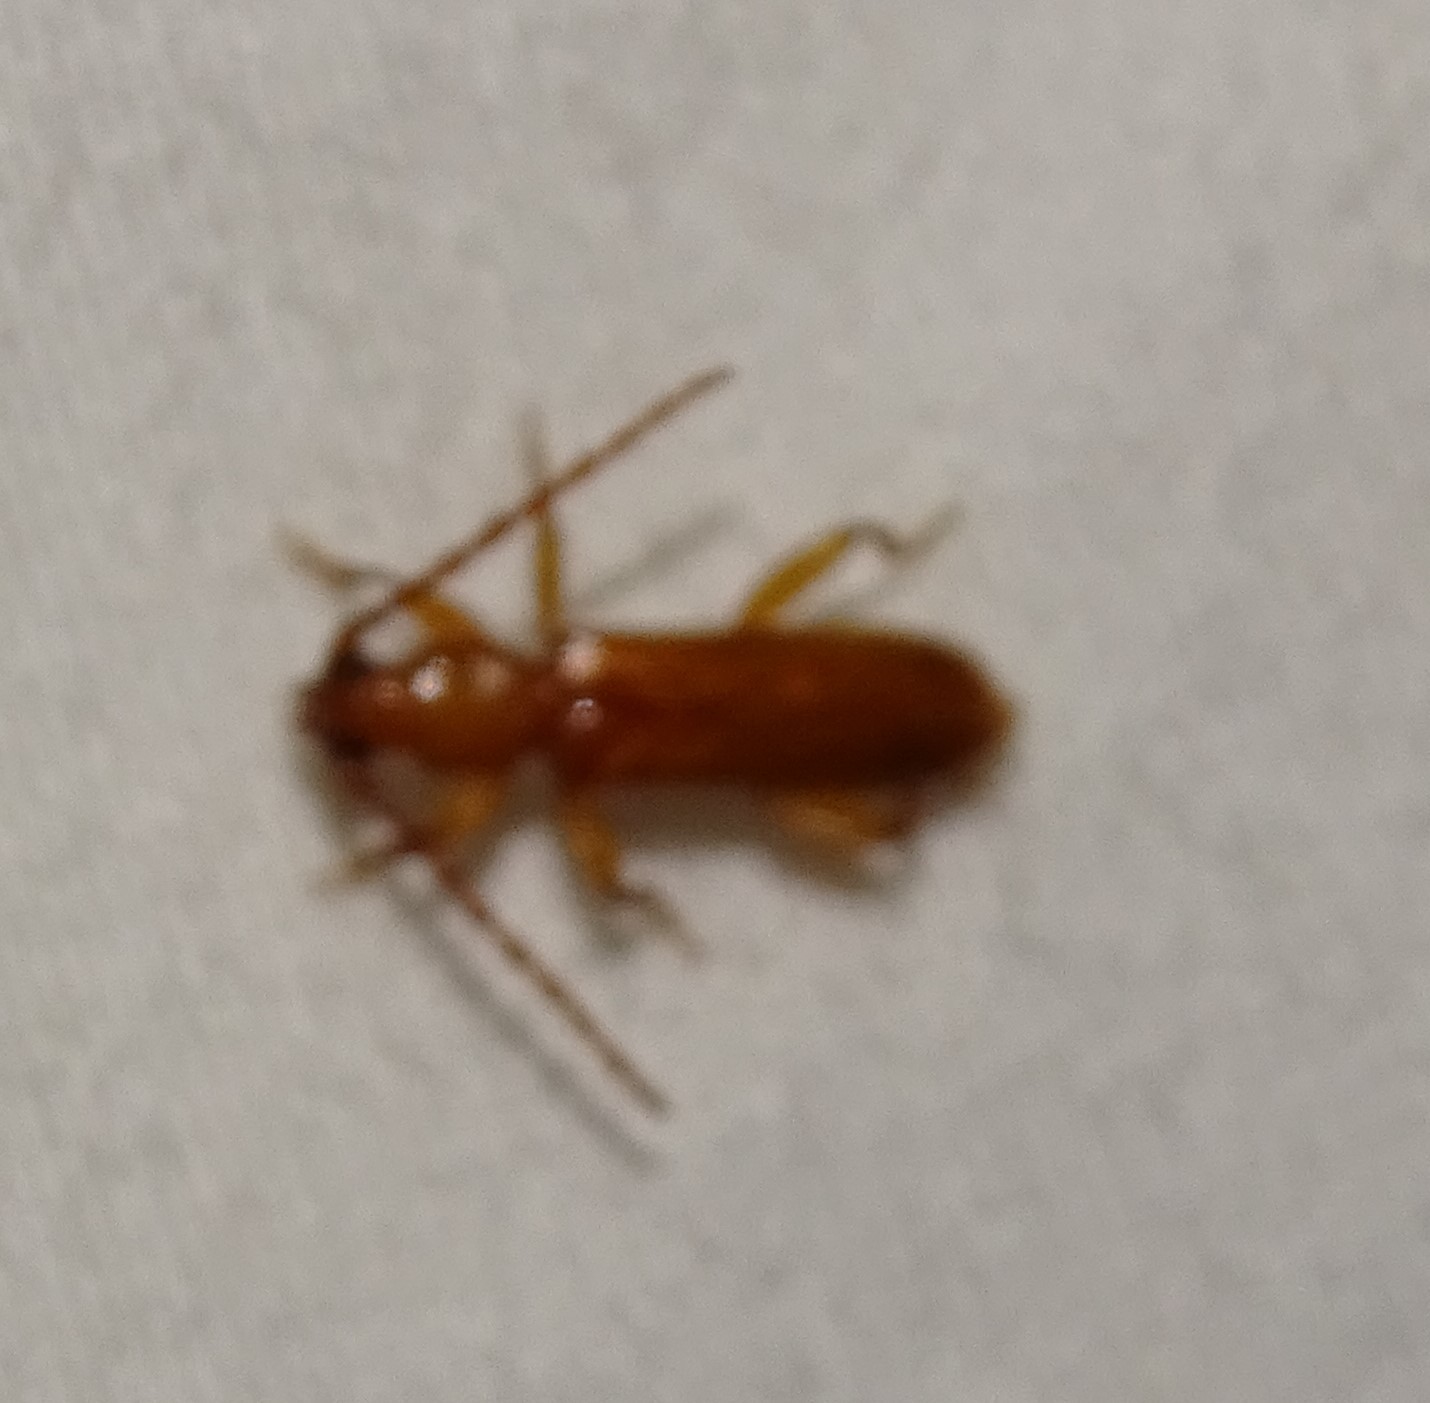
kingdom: Animalia
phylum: Arthropoda
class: Insecta
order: Coleoptera
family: Cerambycidae
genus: Smodicum
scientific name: Smodicum cucujiforme
